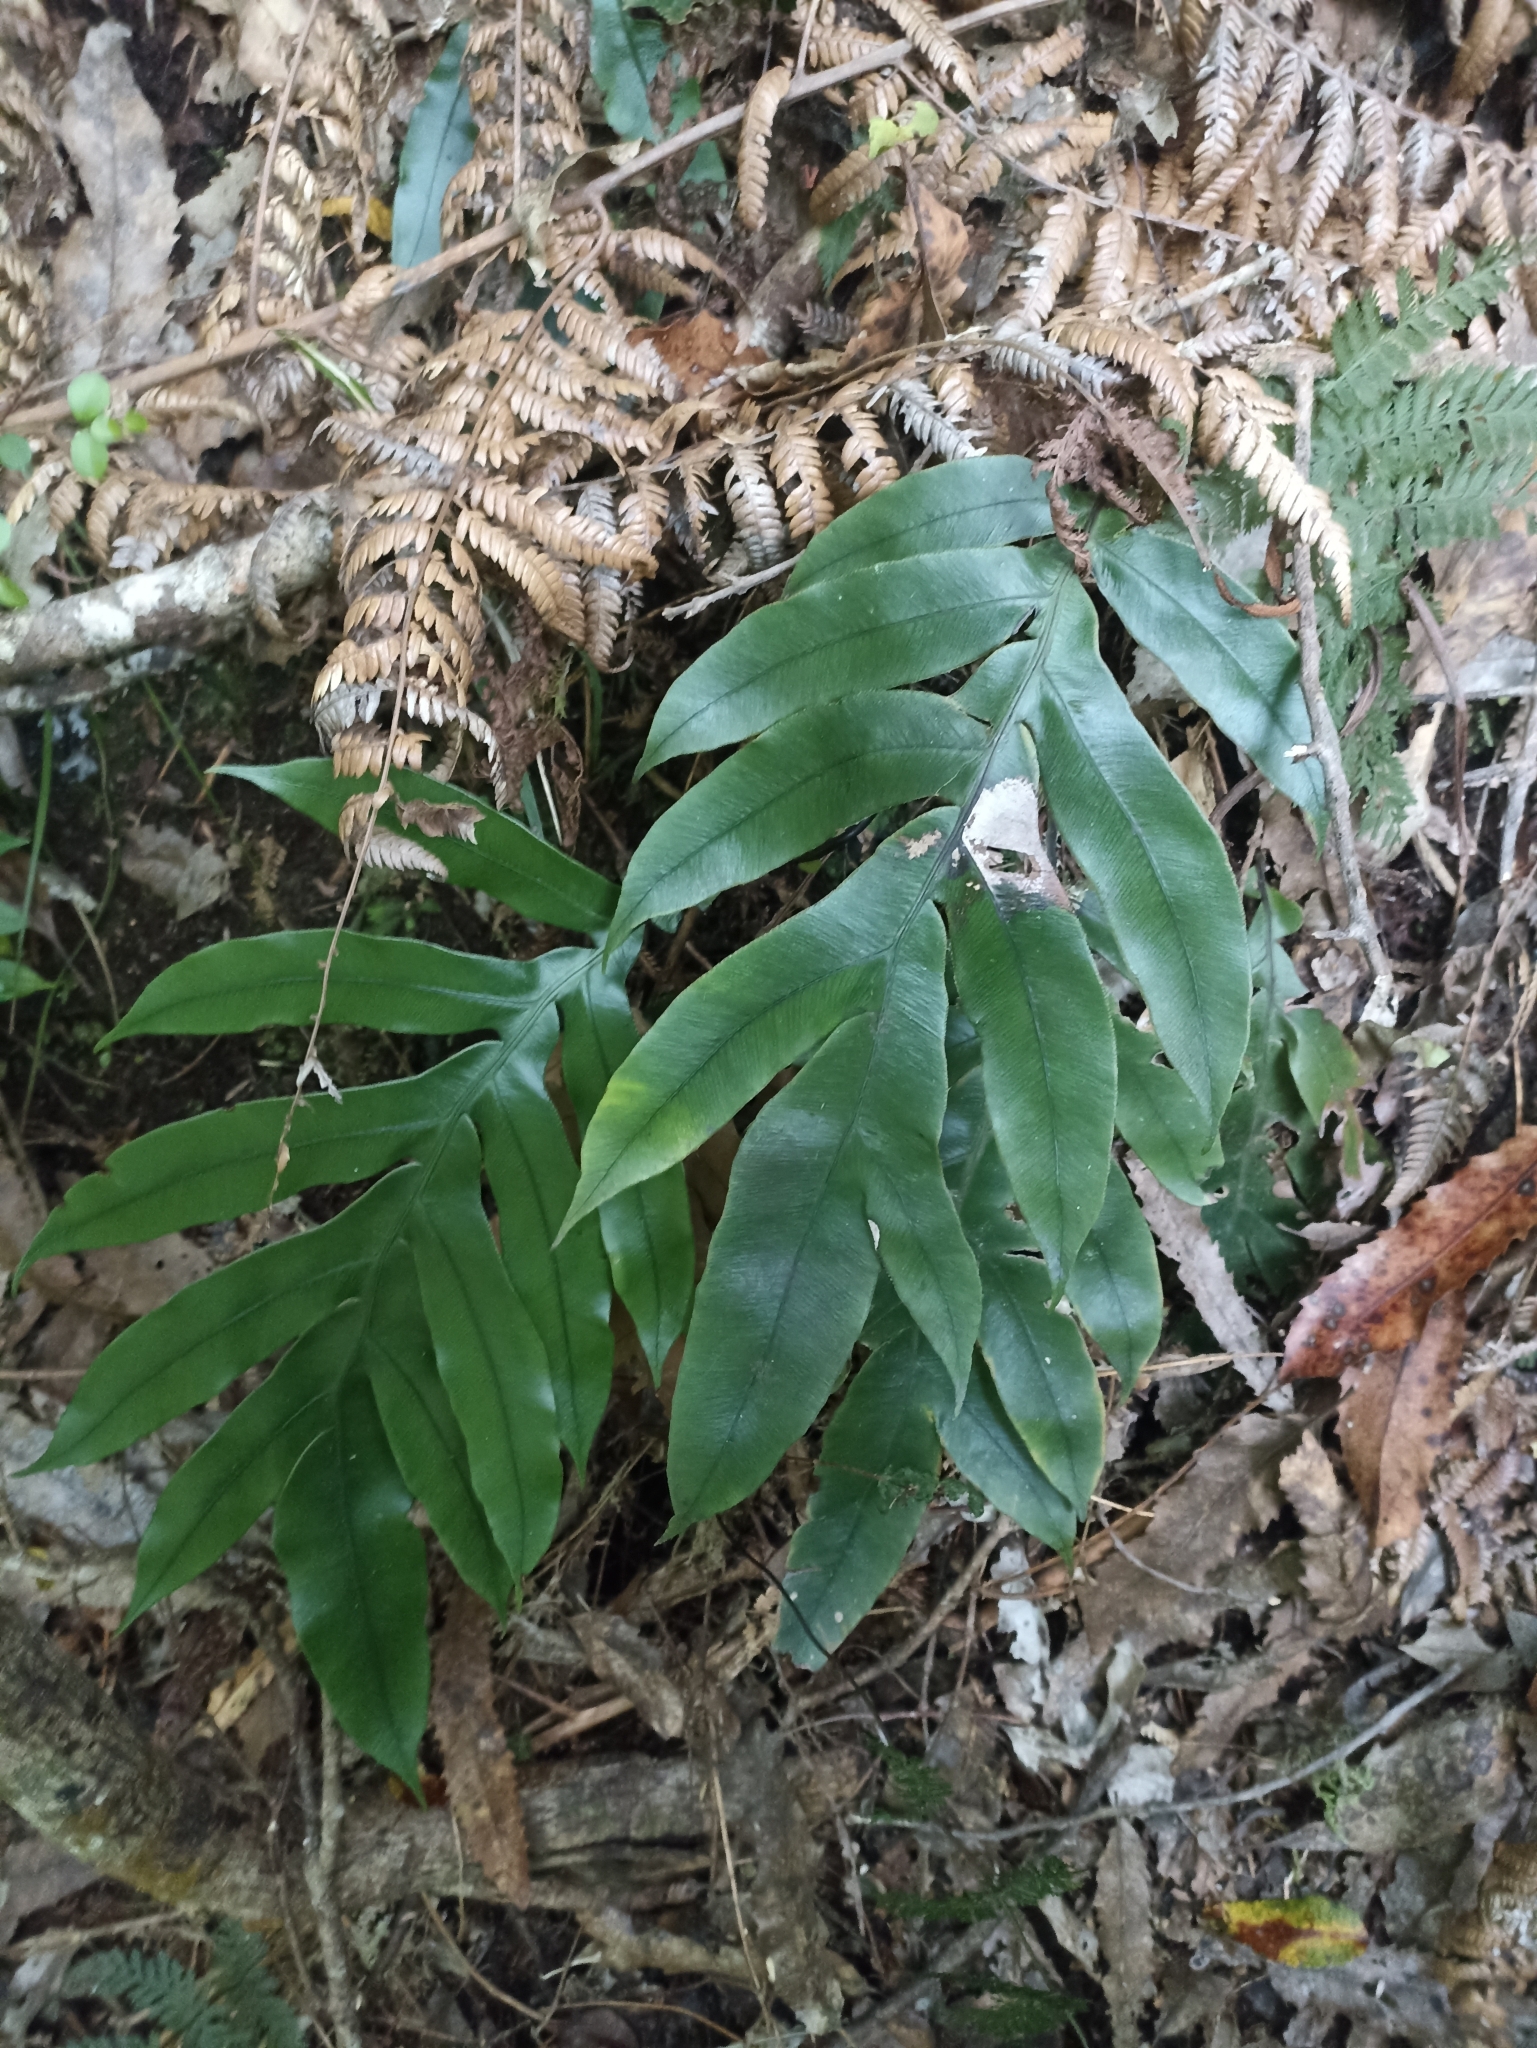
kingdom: Plantae
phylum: Tracheophyta
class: Polypodiopsida
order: Polypodiales
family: Blechnaceae
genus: Austroblechnum
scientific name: Austroblechnum colensoi
